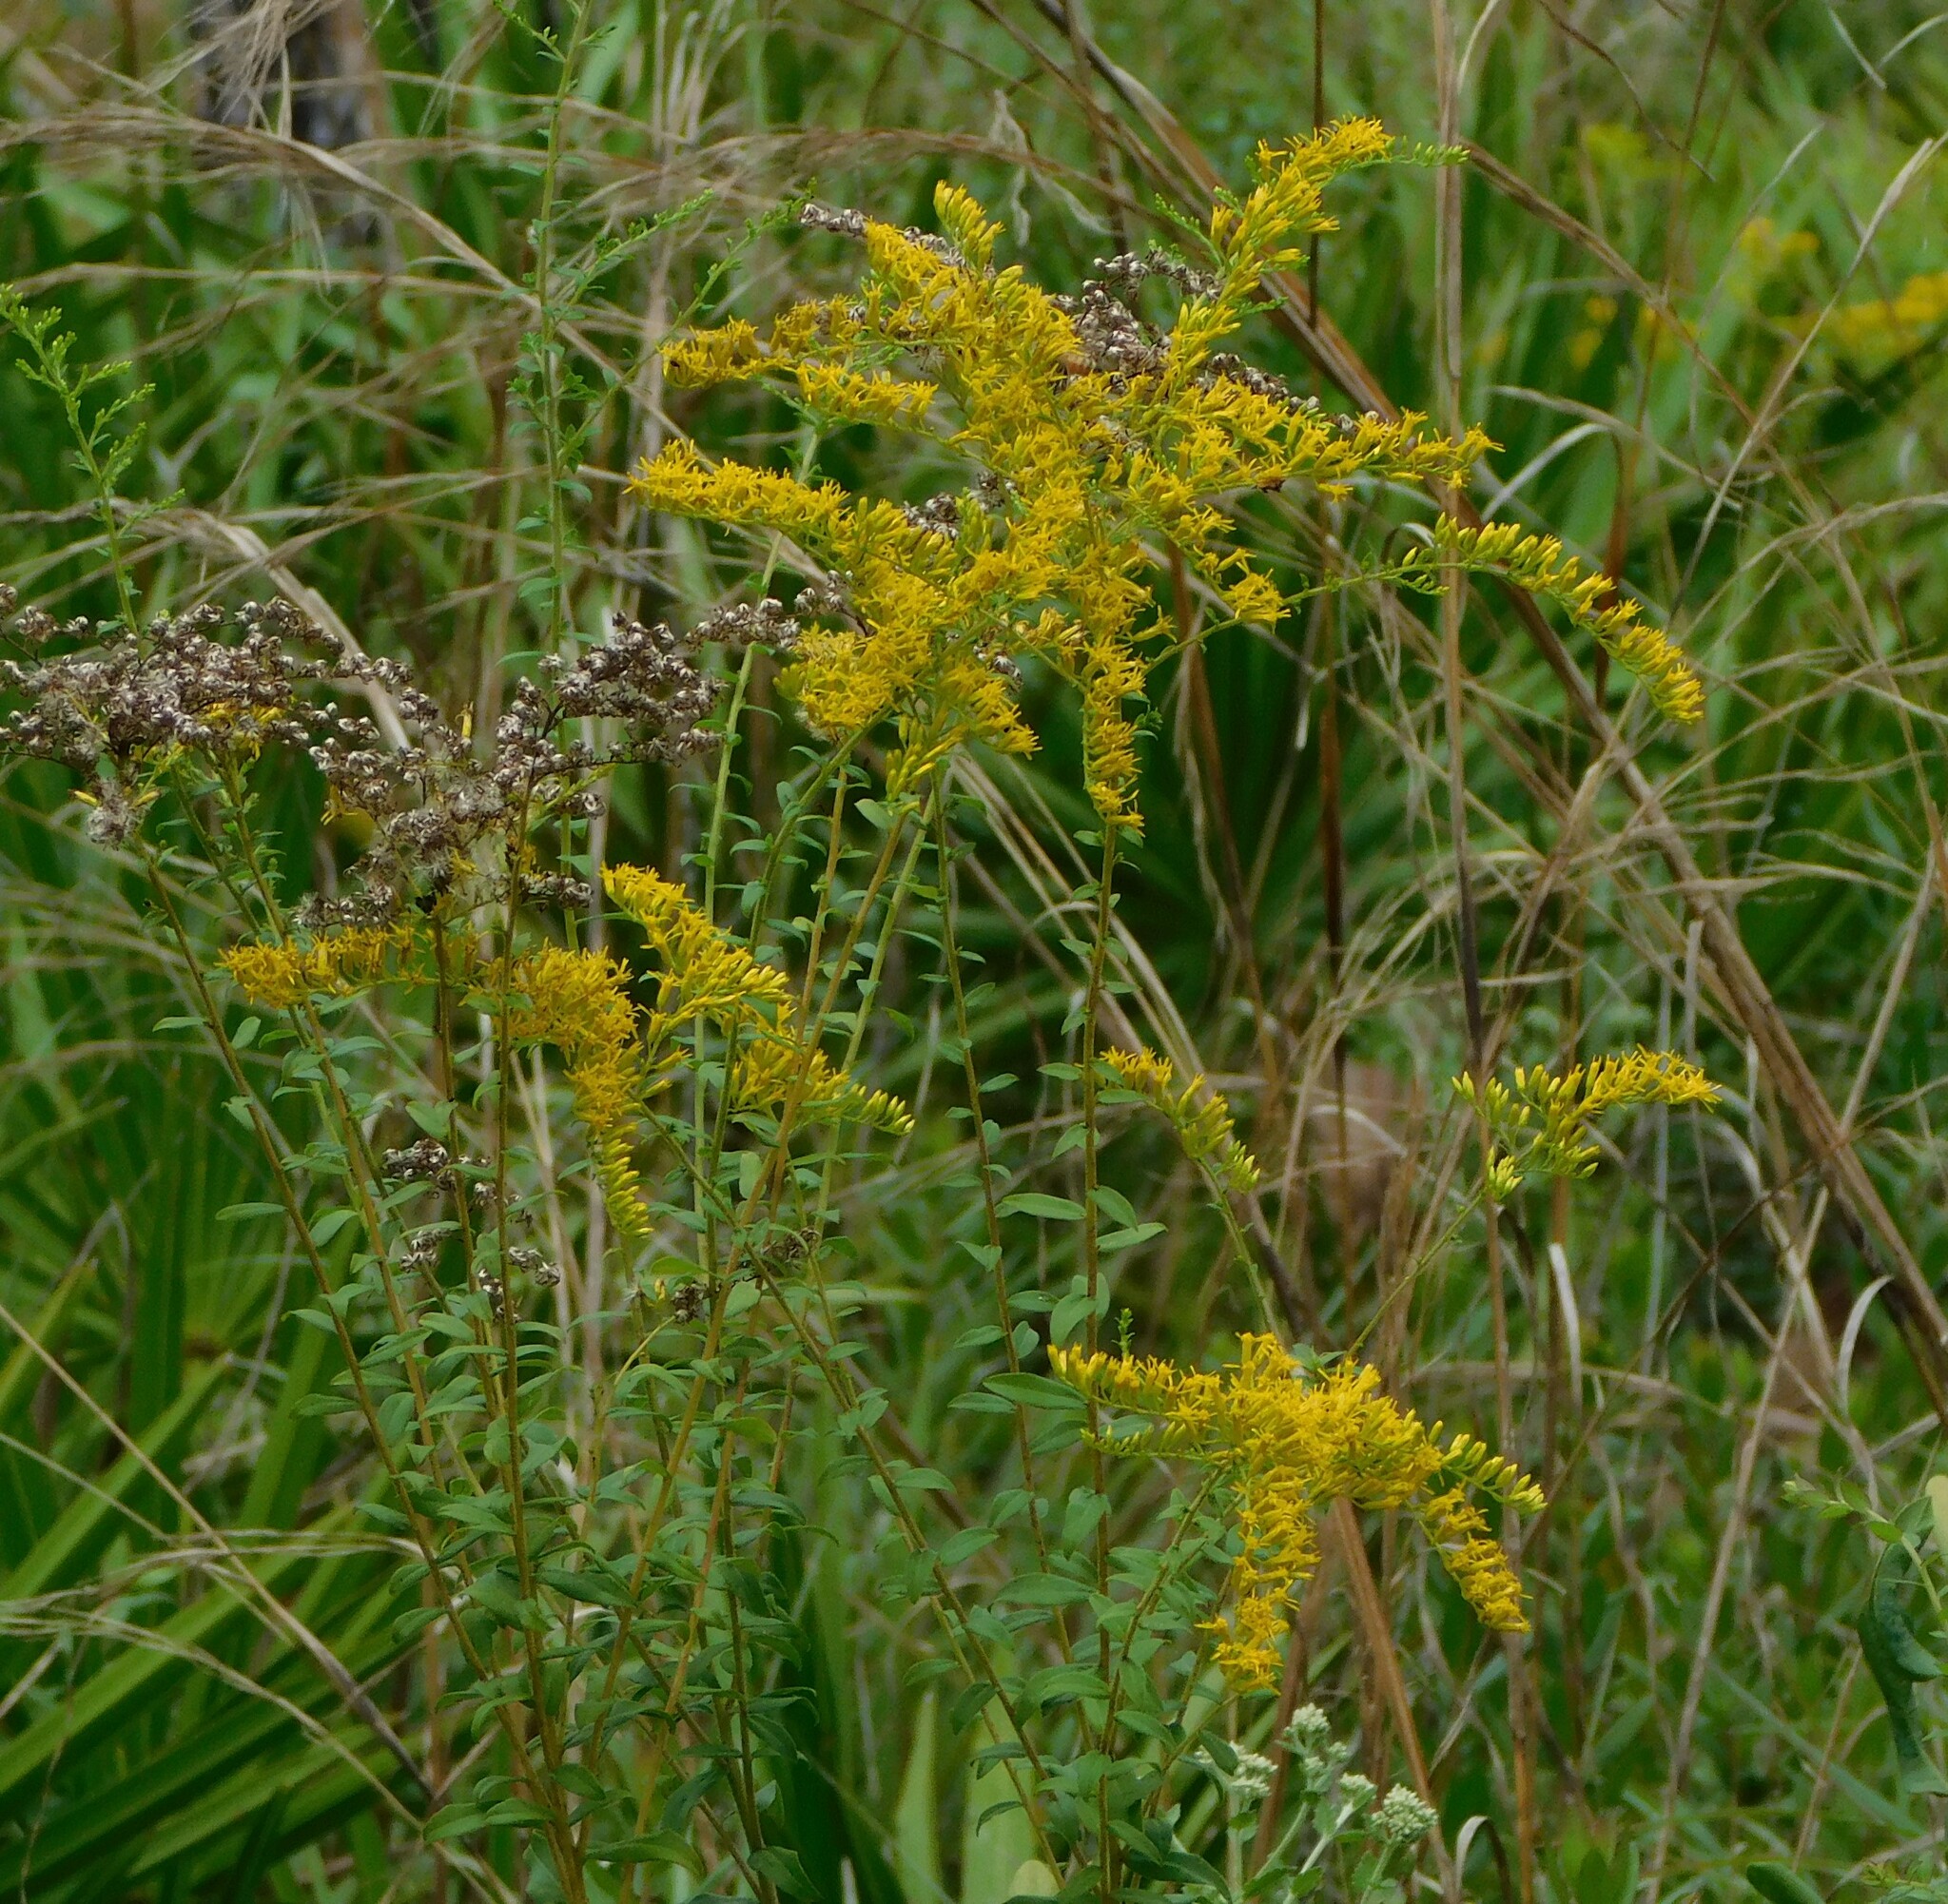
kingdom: Plantae
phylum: Tracheophyta
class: Magnoliopsida
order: Asterales
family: Asteraceae
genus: Solidago
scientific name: Solidago chapmanii
